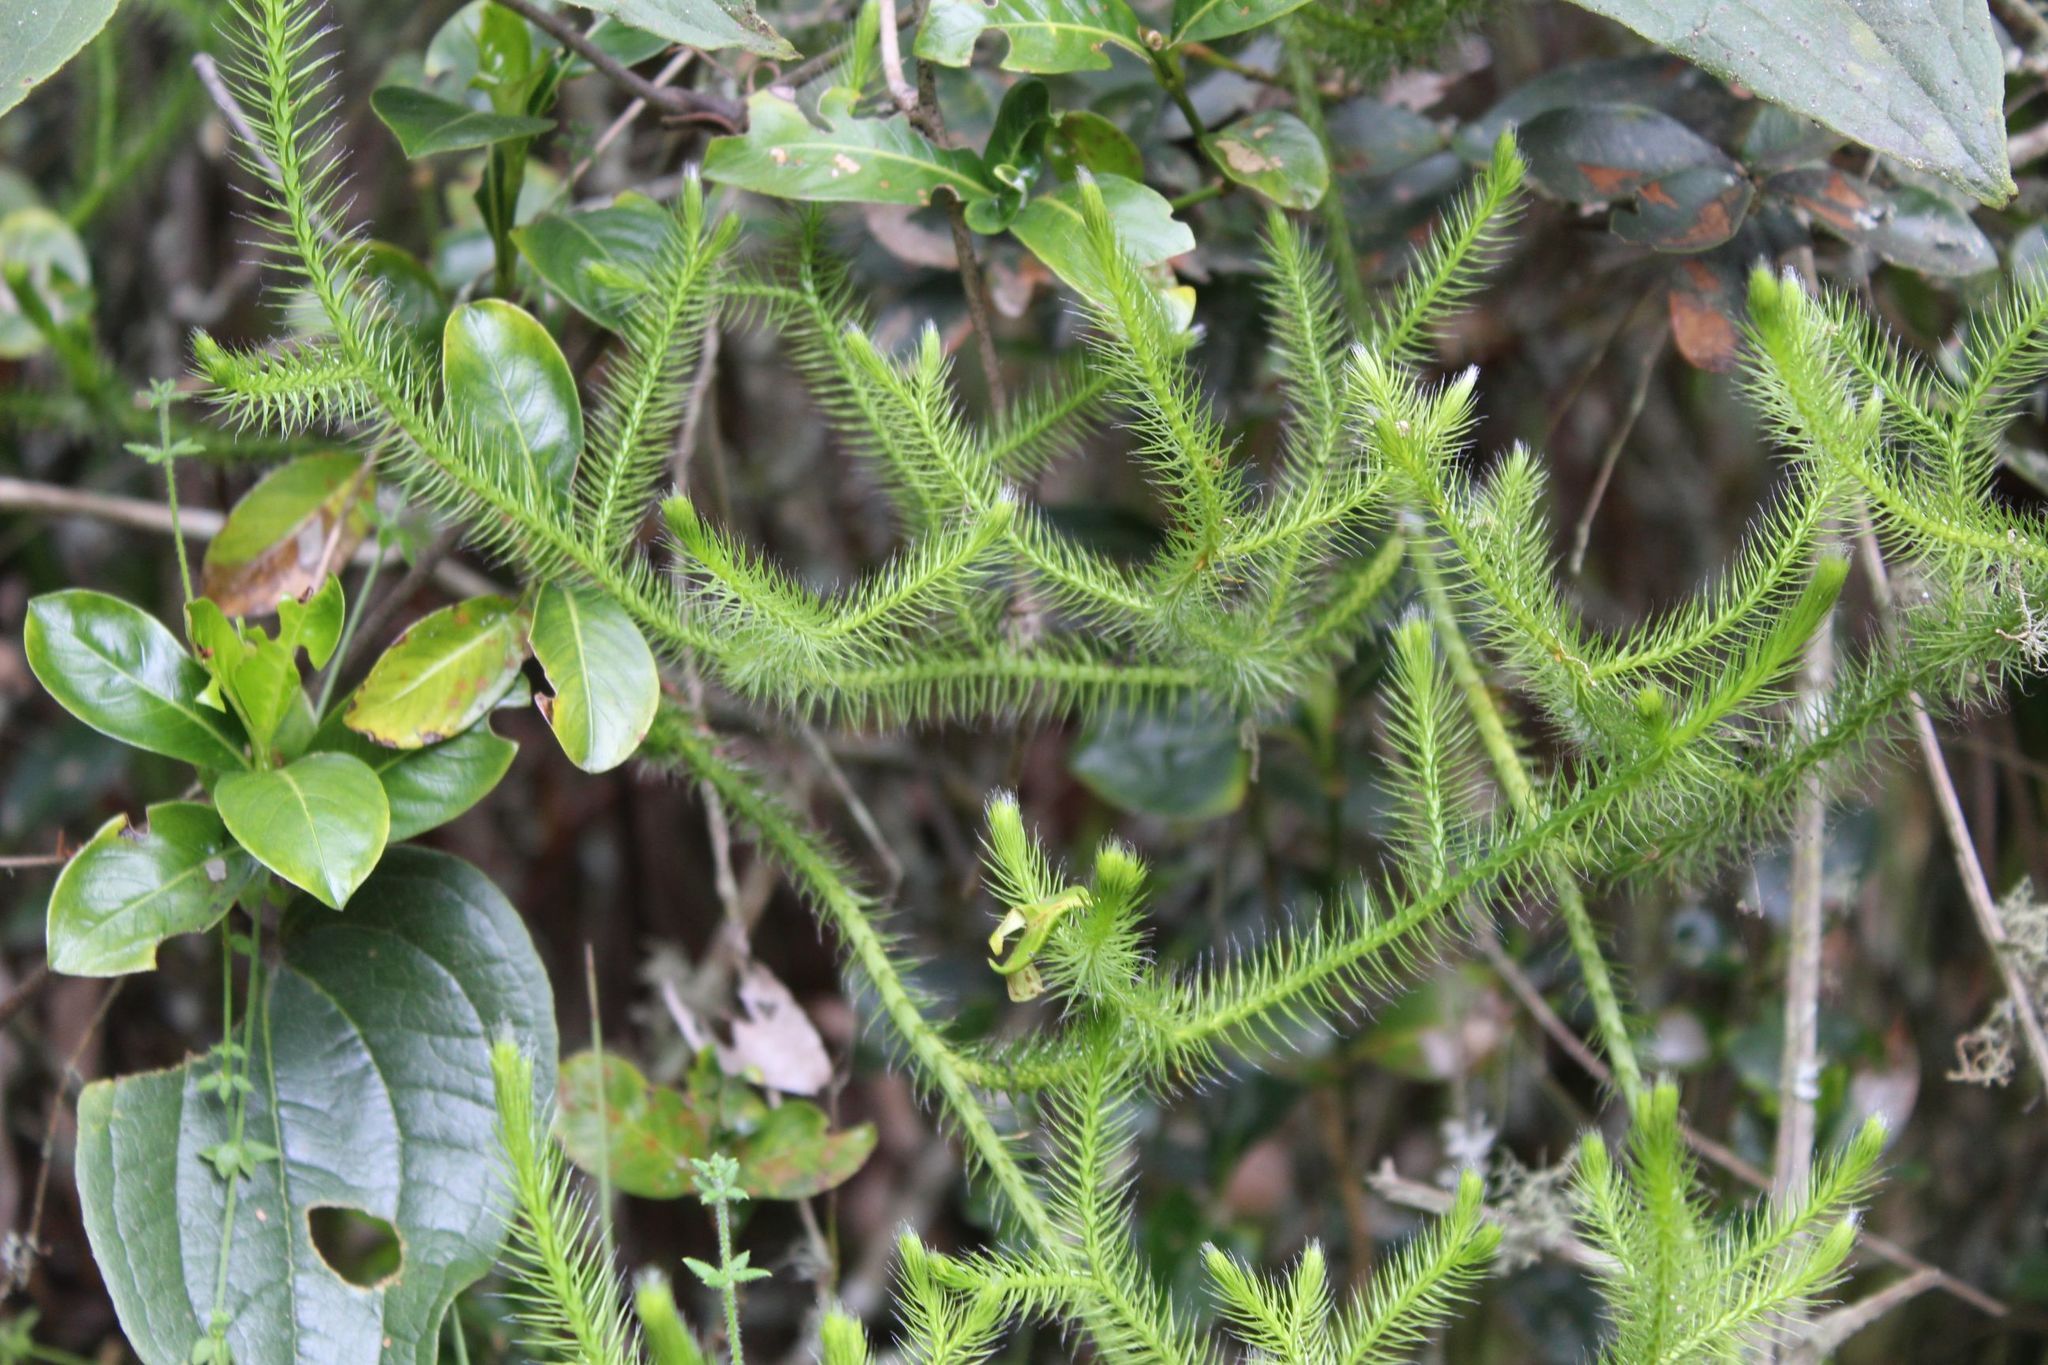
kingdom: Plantae
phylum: Tracheophyta
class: Lycopodiopsida
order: Lycopodiales
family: Lycopodiaceae
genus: Lycopodium
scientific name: Lycopodium clavatum
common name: Stag's-horn clubmoss
